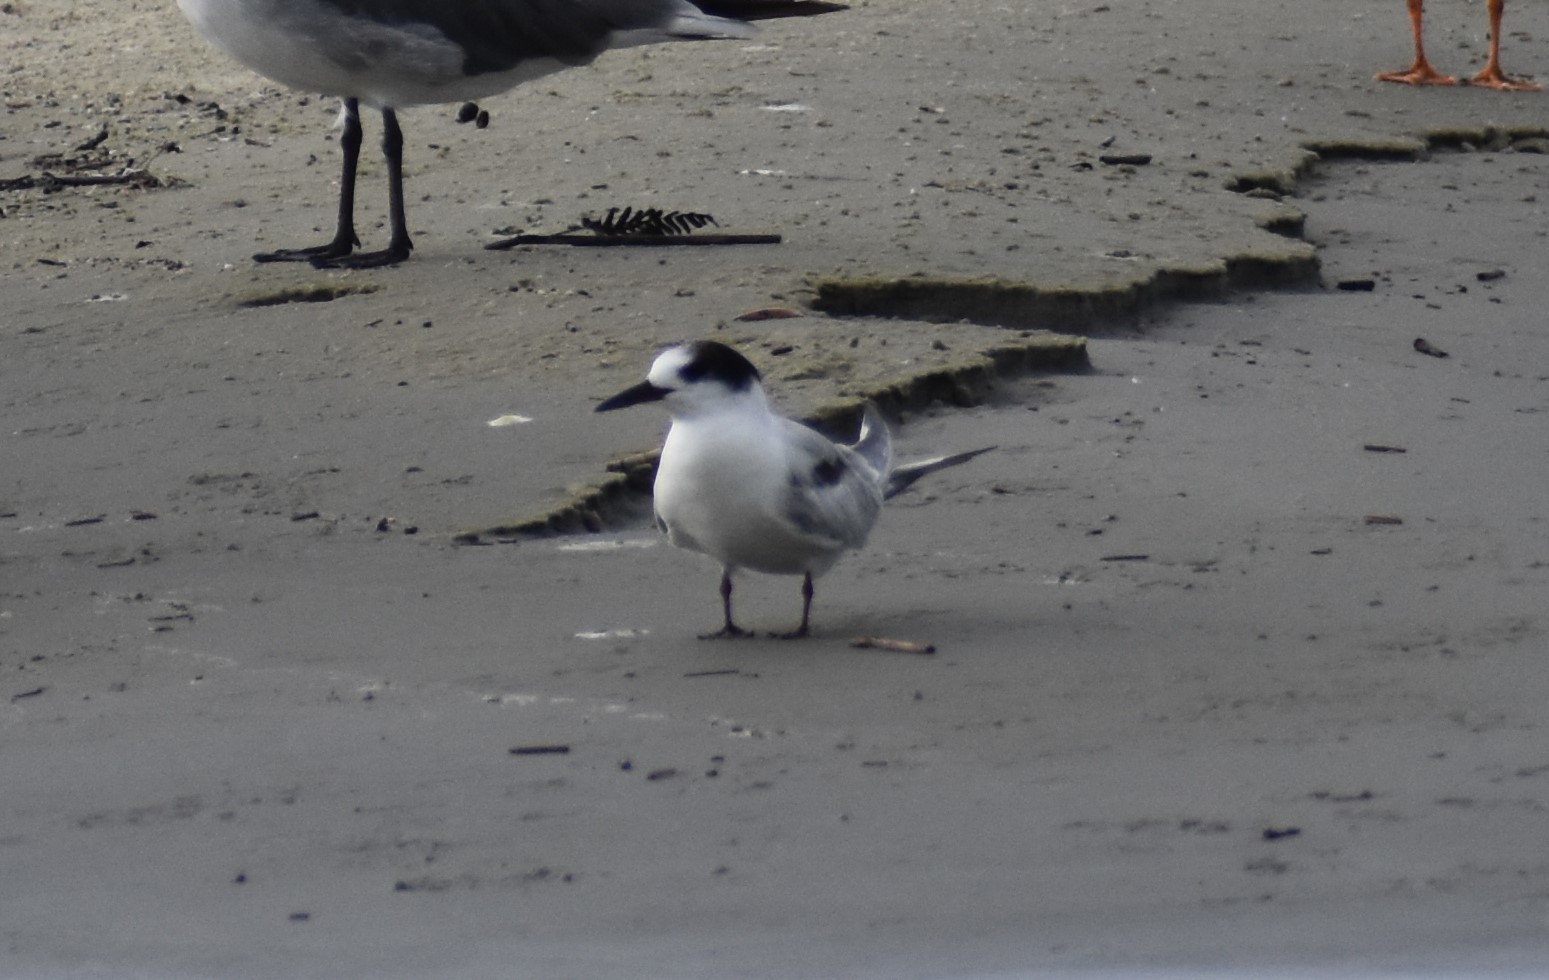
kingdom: Animalia
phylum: Chordata
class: Aves
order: Charadriiformes
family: Laridae
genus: Sterna
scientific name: Sterna hirundo
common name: Common tern
